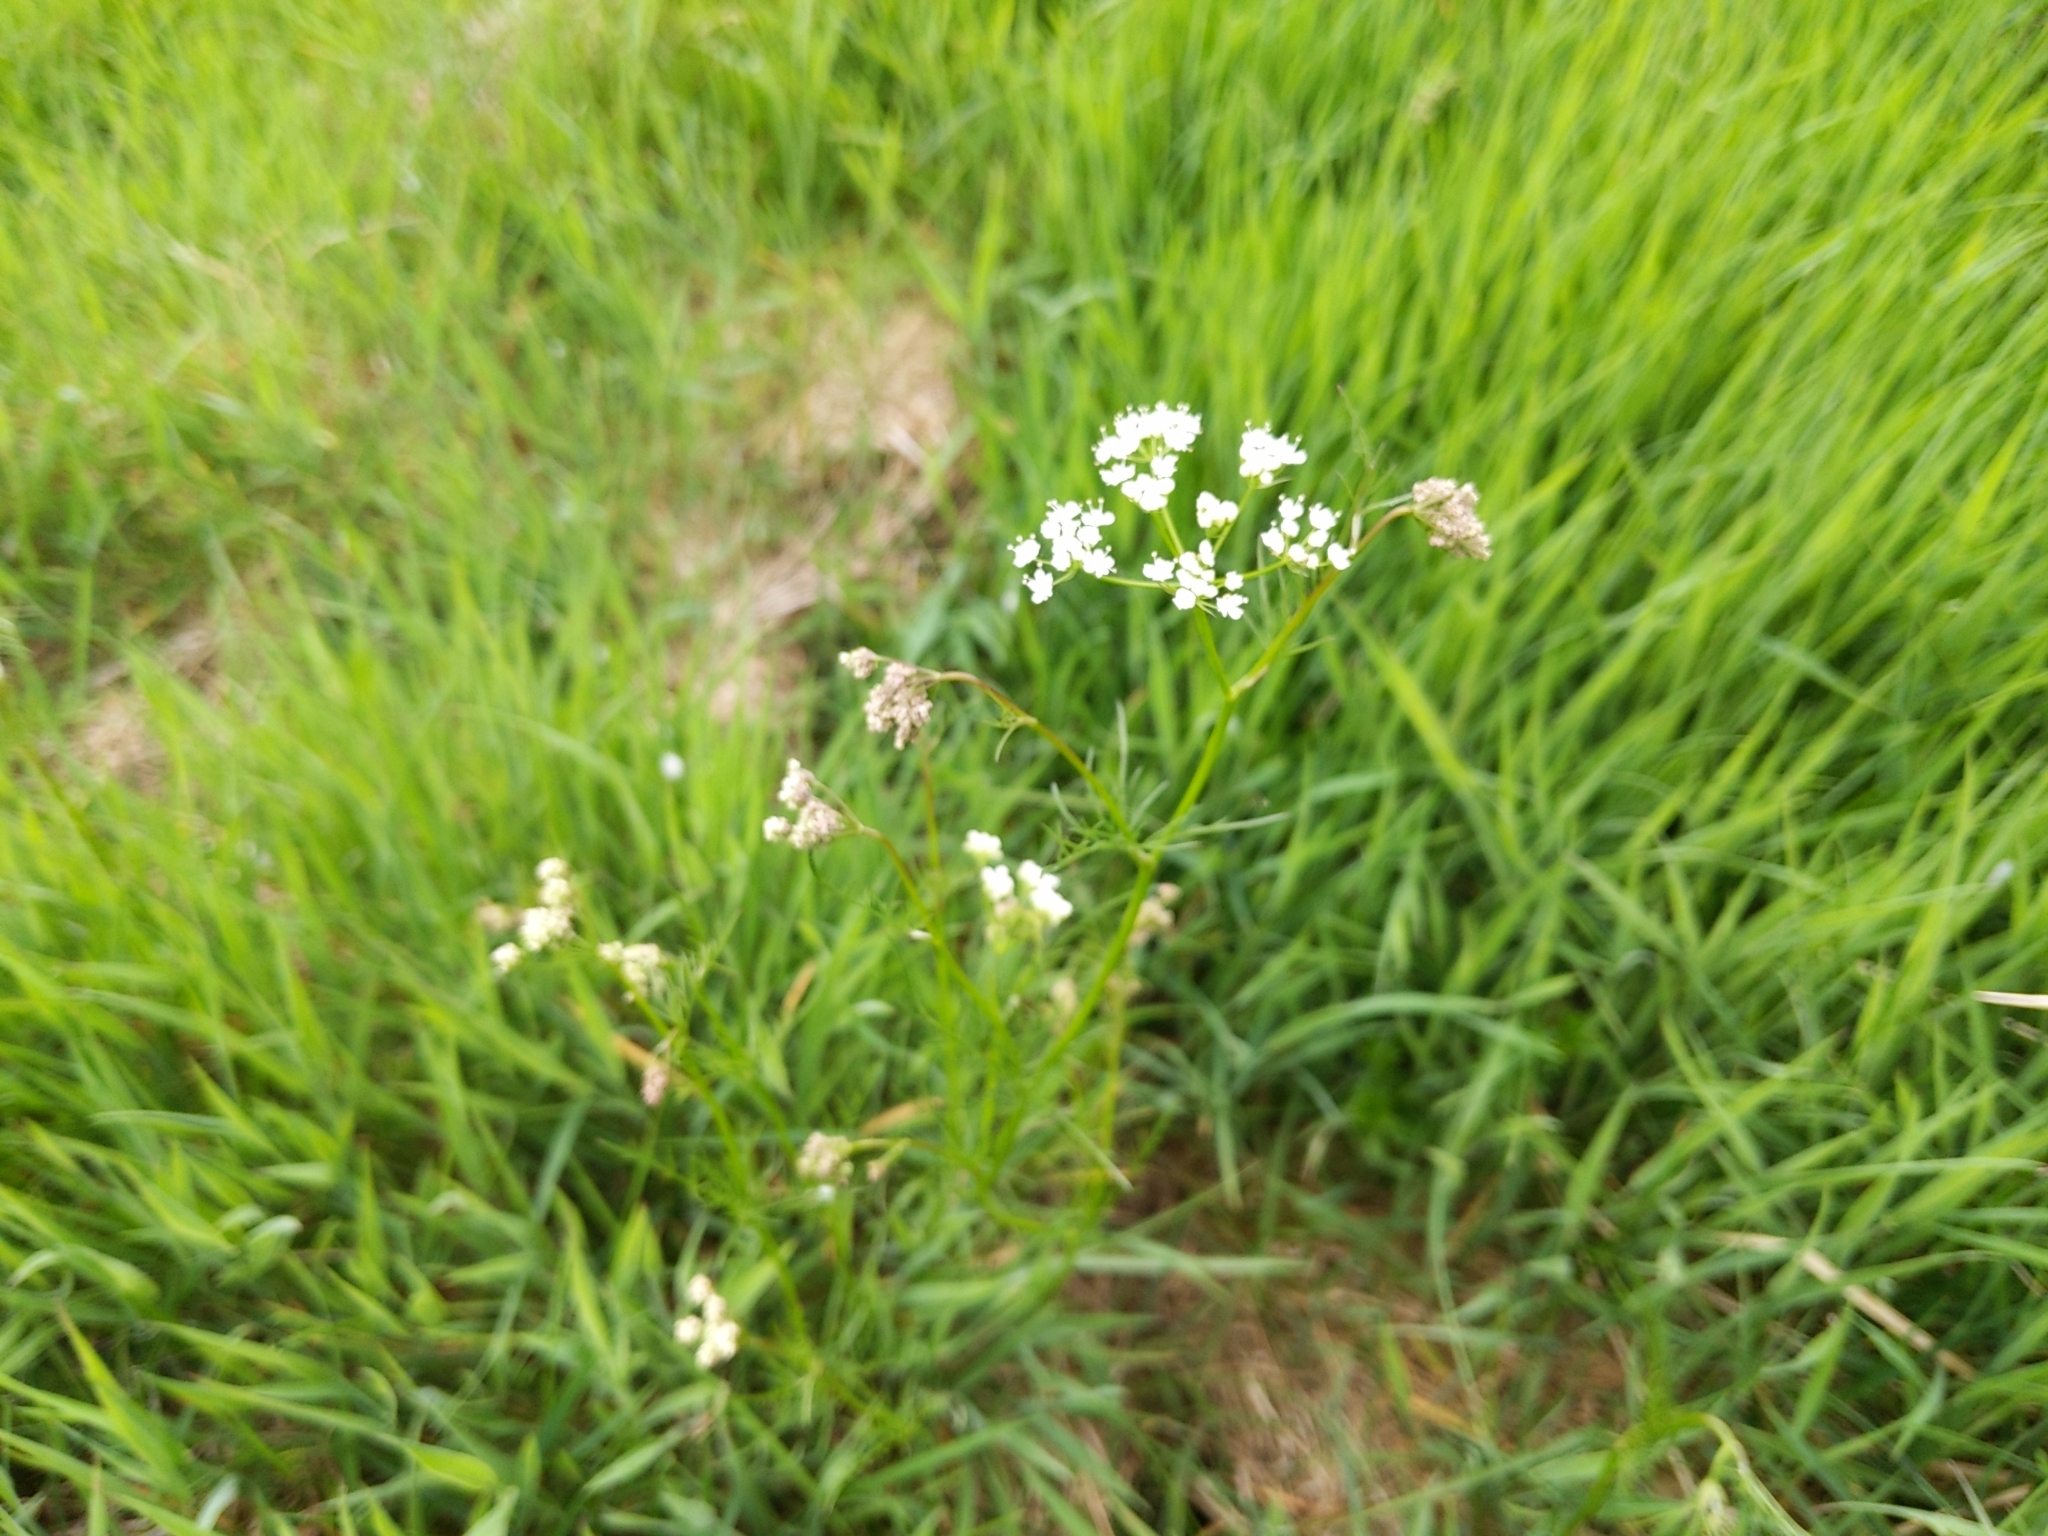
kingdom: Plantae
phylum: Tracheophyta
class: Magnoliopsida
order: Apiales
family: Apiaceae
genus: Conopodium
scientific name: Conopodium majus
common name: Pignut
